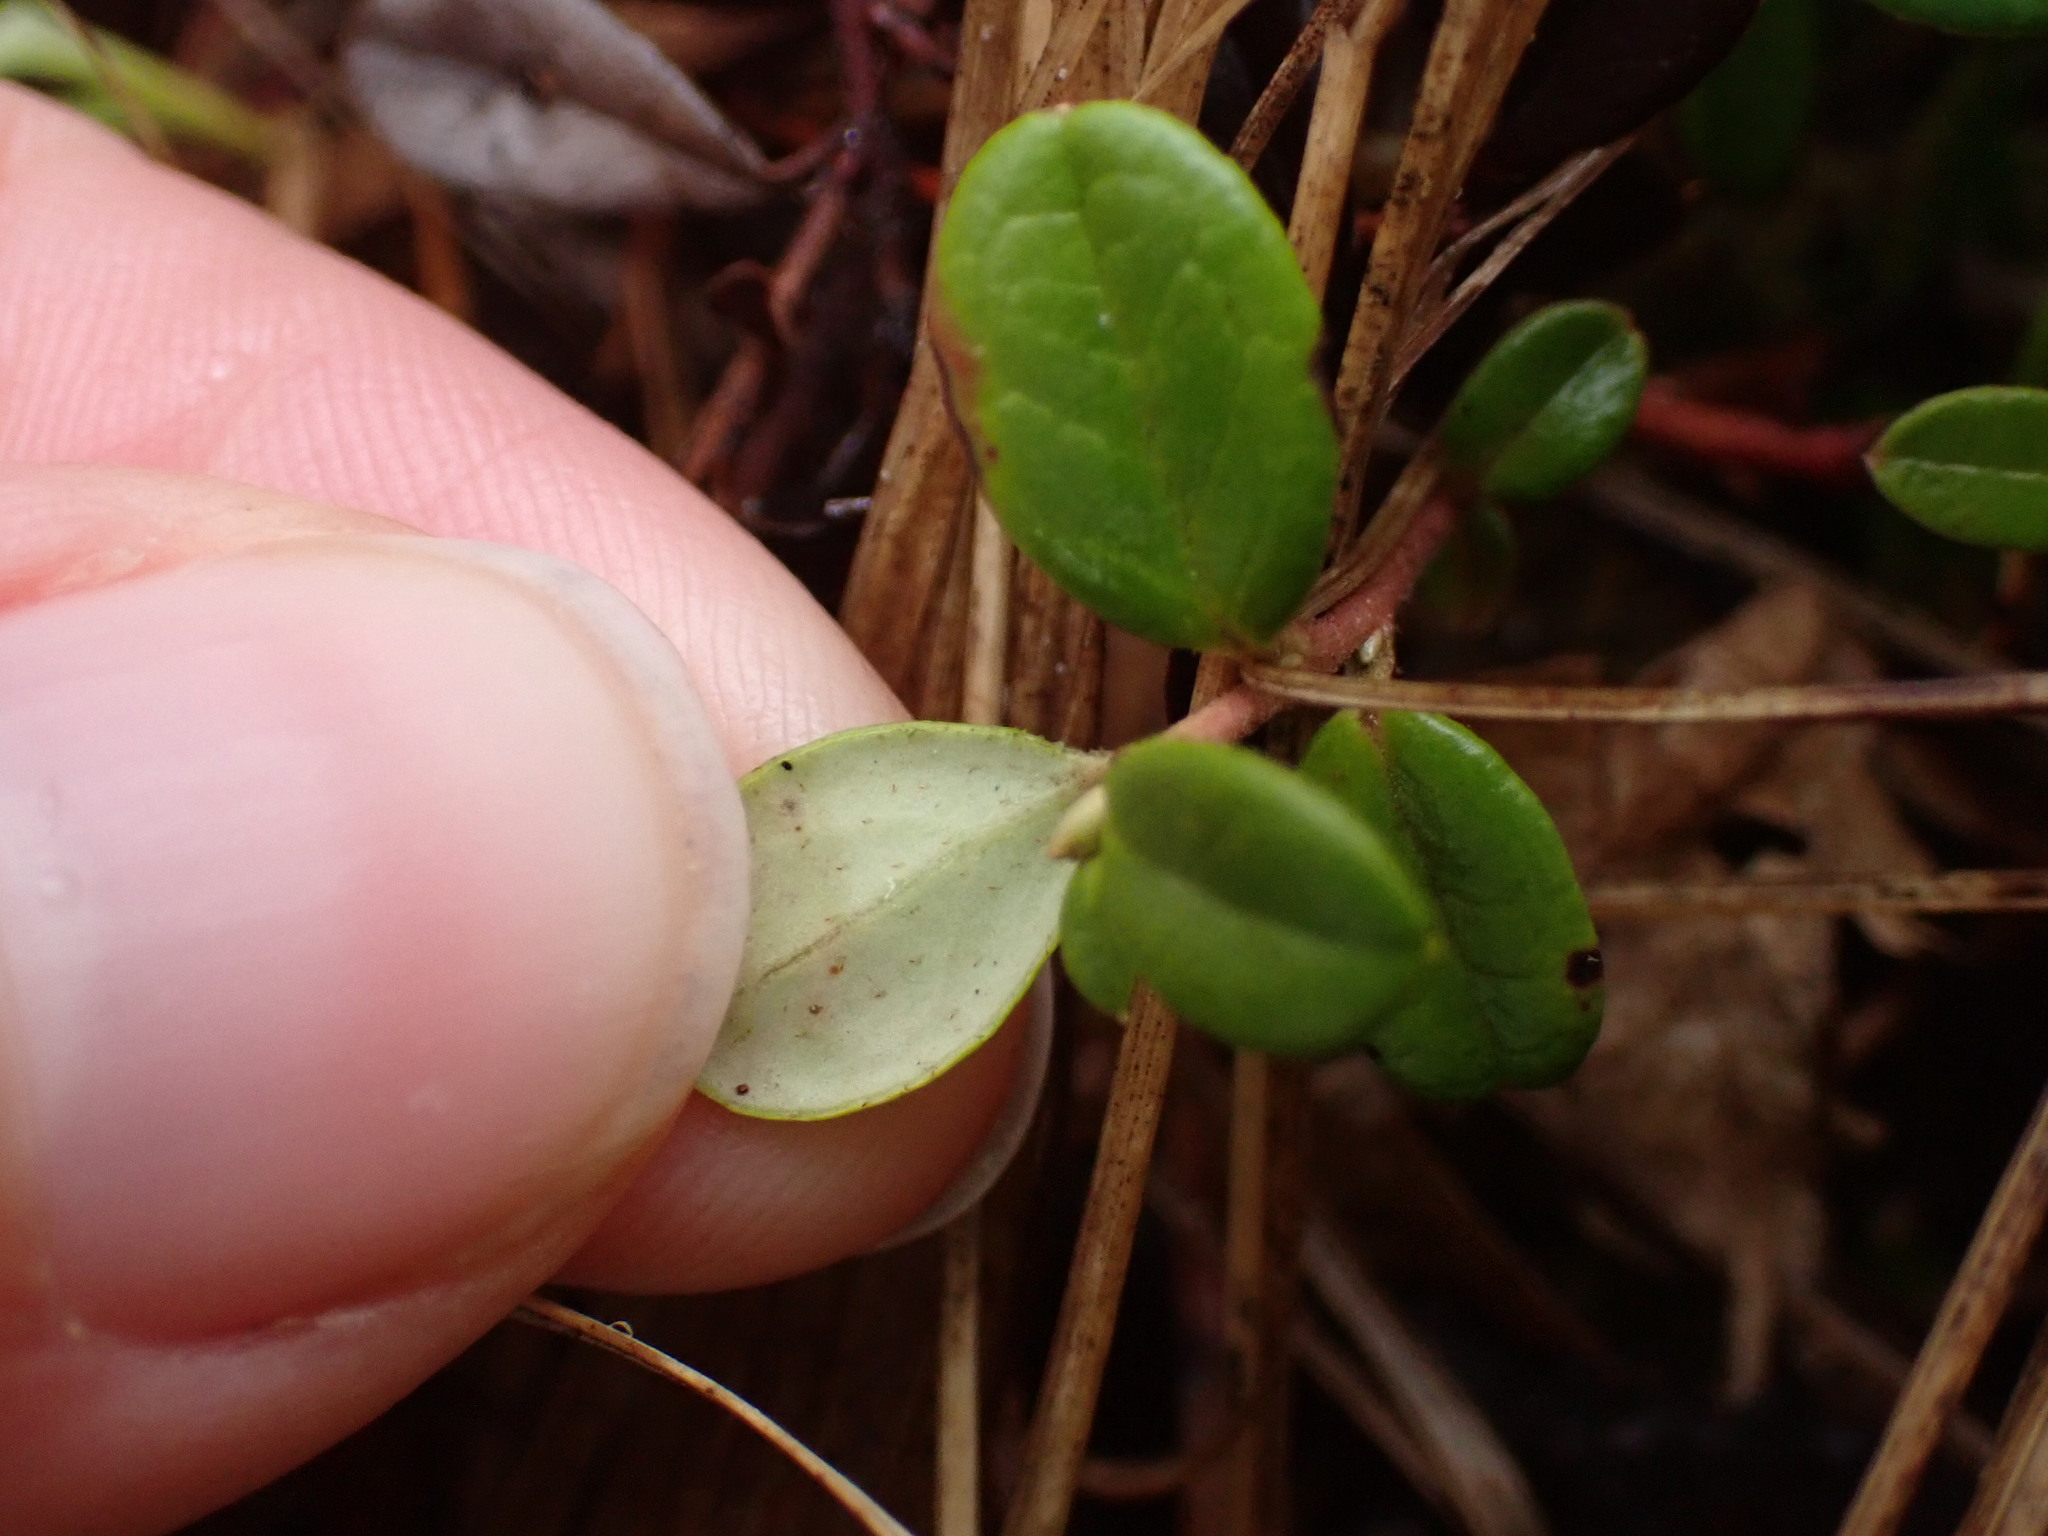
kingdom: Plantae
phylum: Tracheophyta
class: Magnoliopsida
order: Ericales
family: Ericaceae
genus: Vaccinium
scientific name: Vaccinium vitis-idaea
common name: Cowberry
